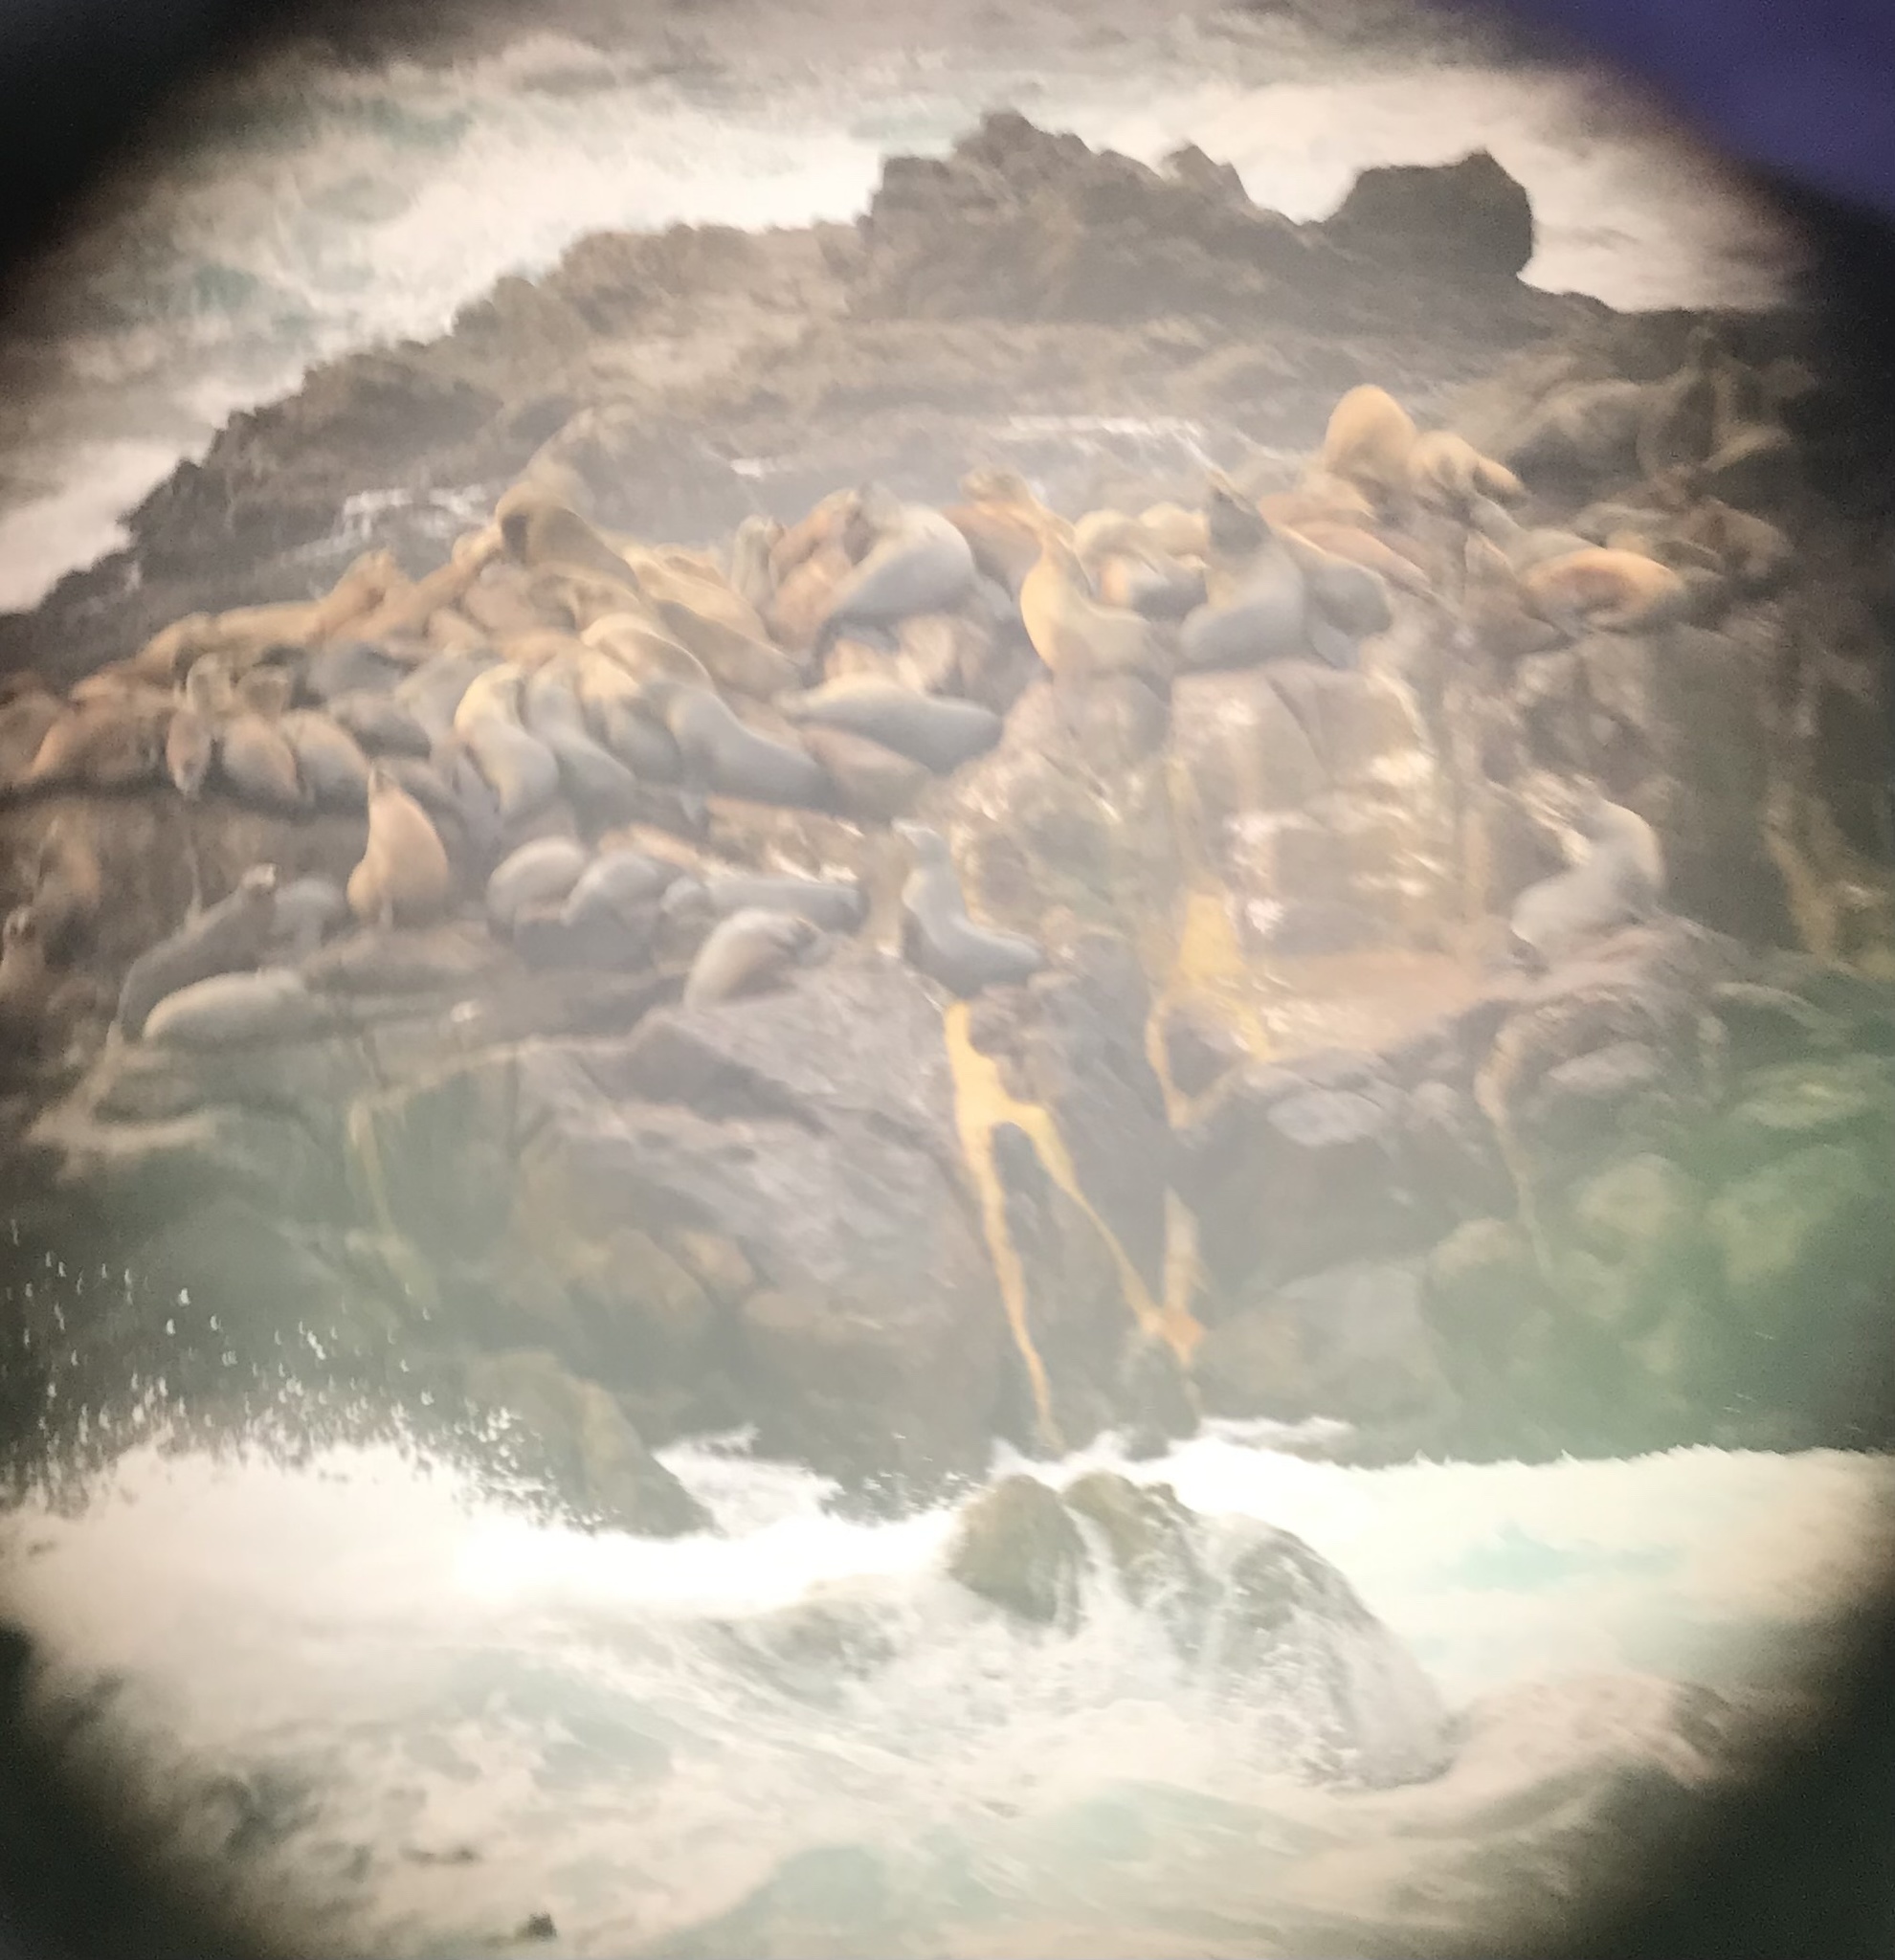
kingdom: Animalia
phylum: Chordata
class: Mammalia
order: Carnivora
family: Otariidae
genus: Zalophus
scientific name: Zalophus californianus
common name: California sea lion
